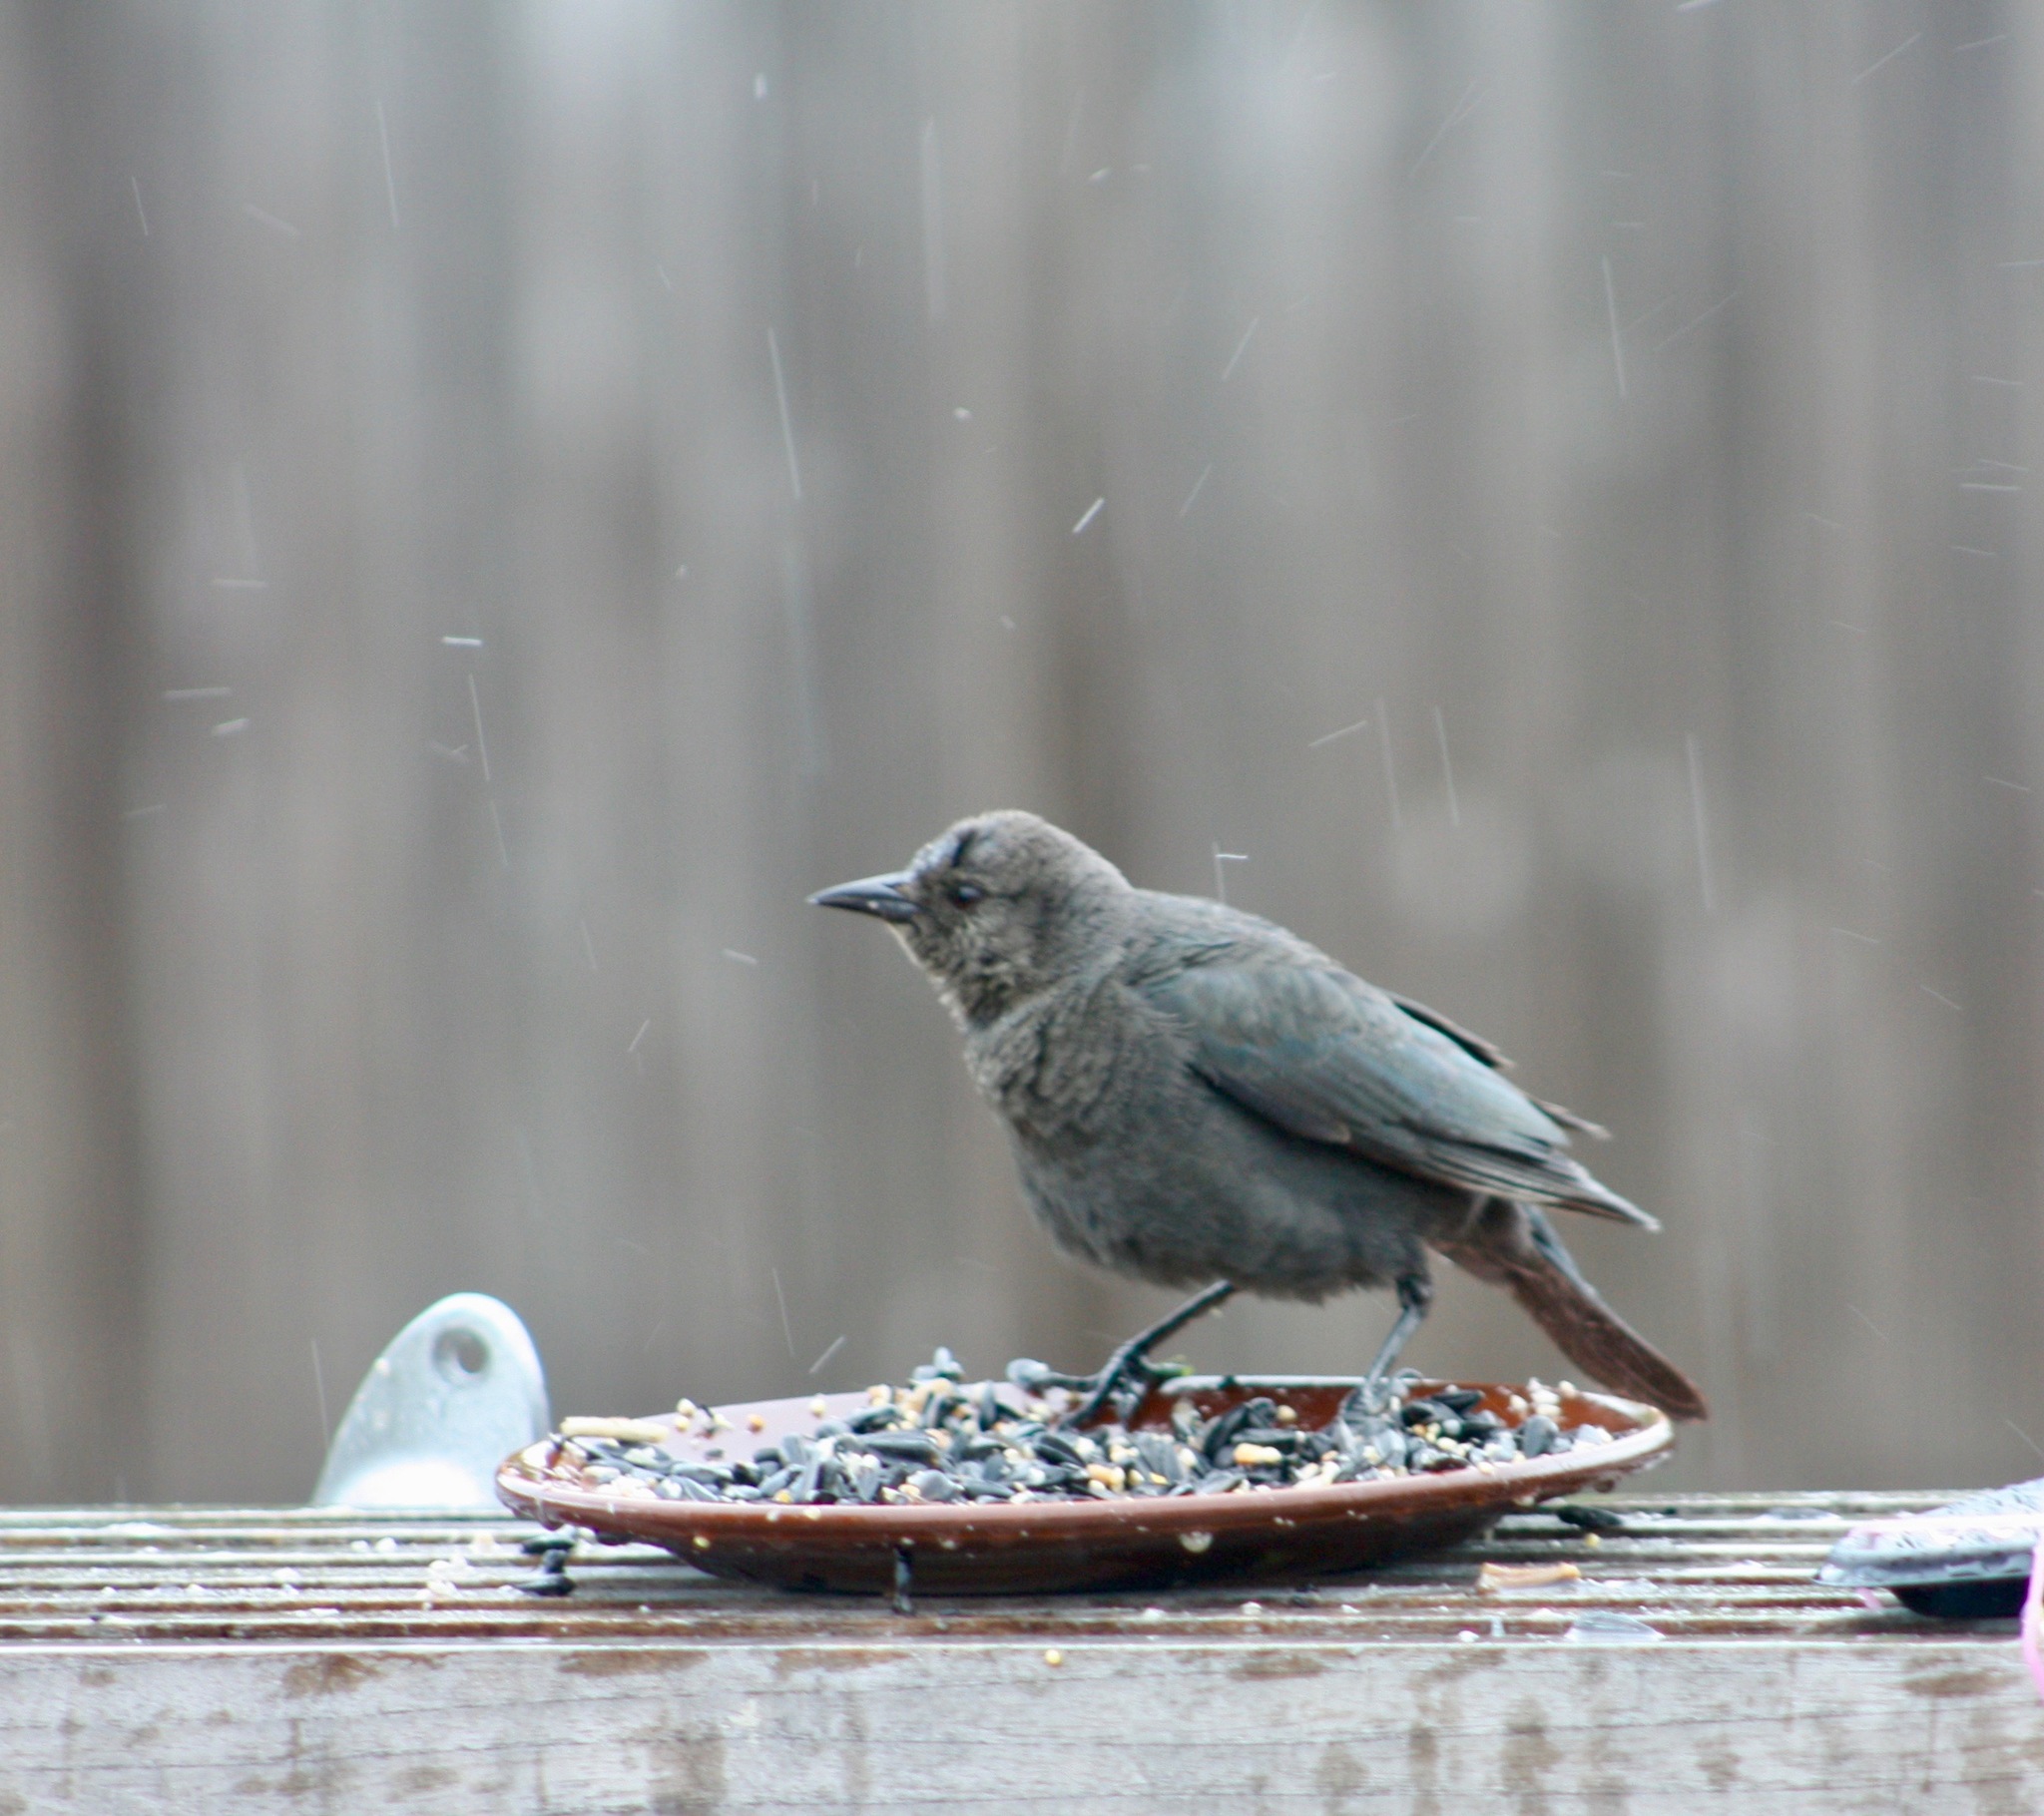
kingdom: Animalia
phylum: Chordata
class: Aves
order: Passeriformes
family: Icteridae
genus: Molothrus
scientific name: Molothrus ater
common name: Brown-headed cowbird
